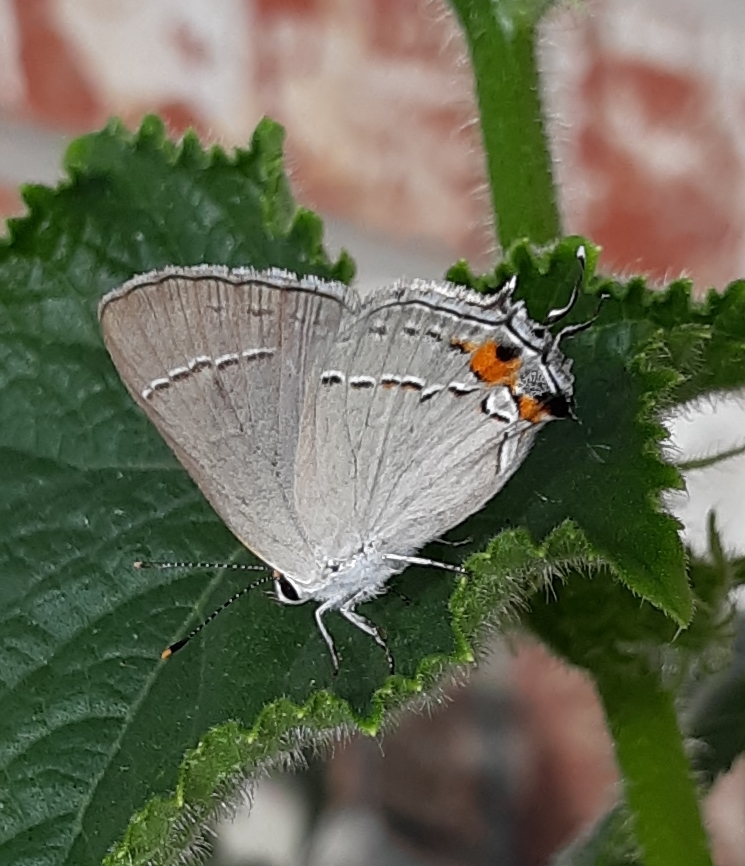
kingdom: Animalia
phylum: Arthropoda
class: Insecta
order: Lepidoptera
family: Lycaenidae
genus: Strymon
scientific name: Strymon melinus
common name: Gray hairstreak
